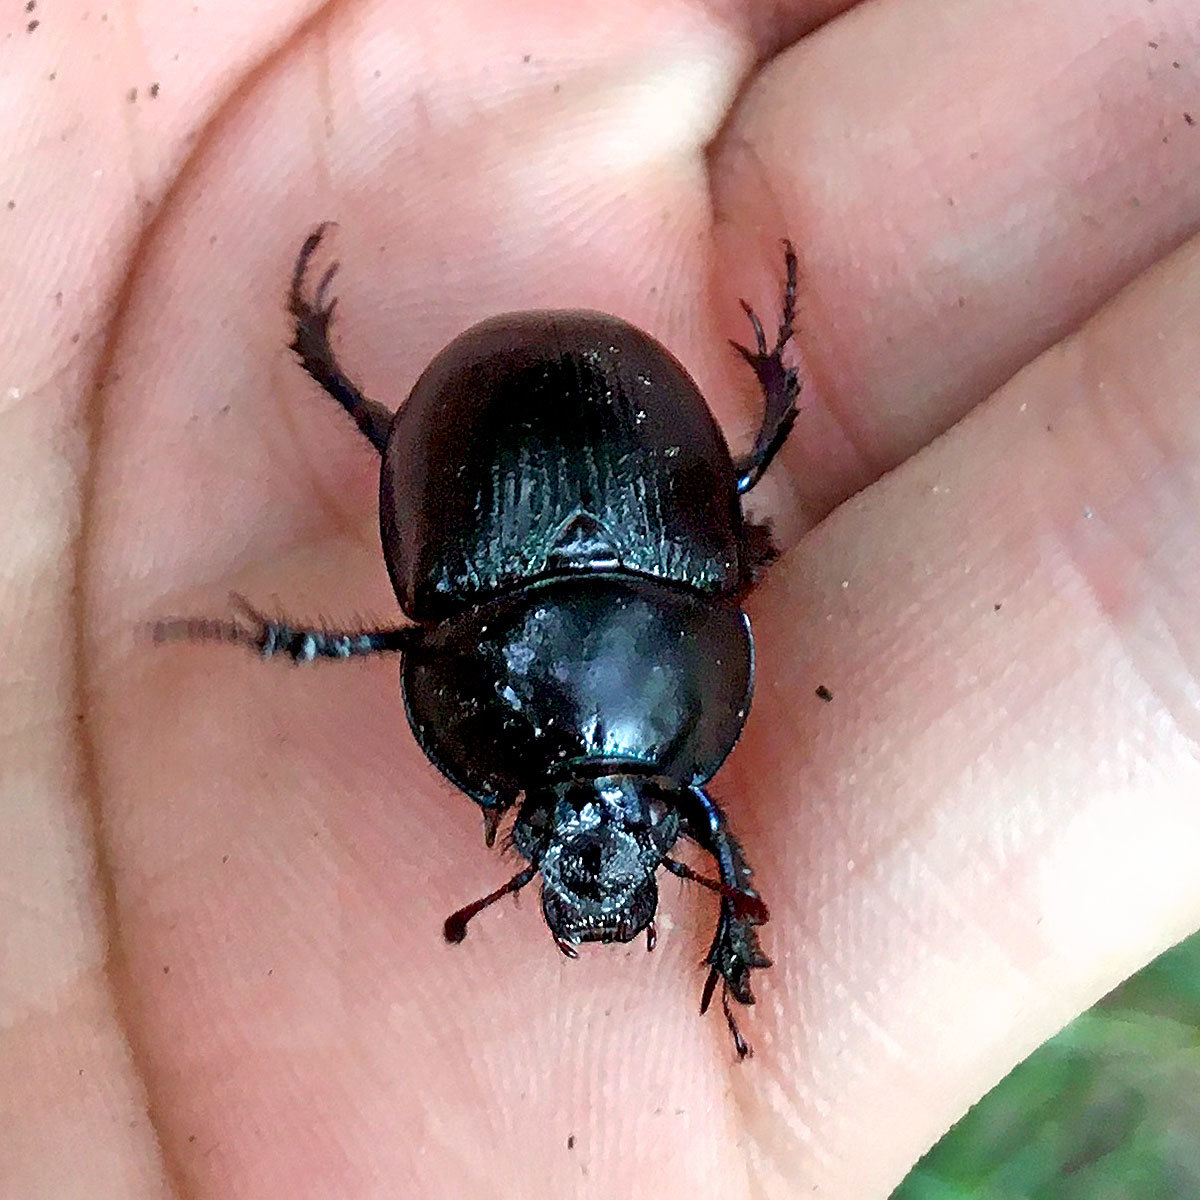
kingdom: Animalia
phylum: Arthropoda
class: Insecta
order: Coleoptera
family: Geotrupidae
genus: Anoplotrupes
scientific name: Anoplotrupes stercorosus
